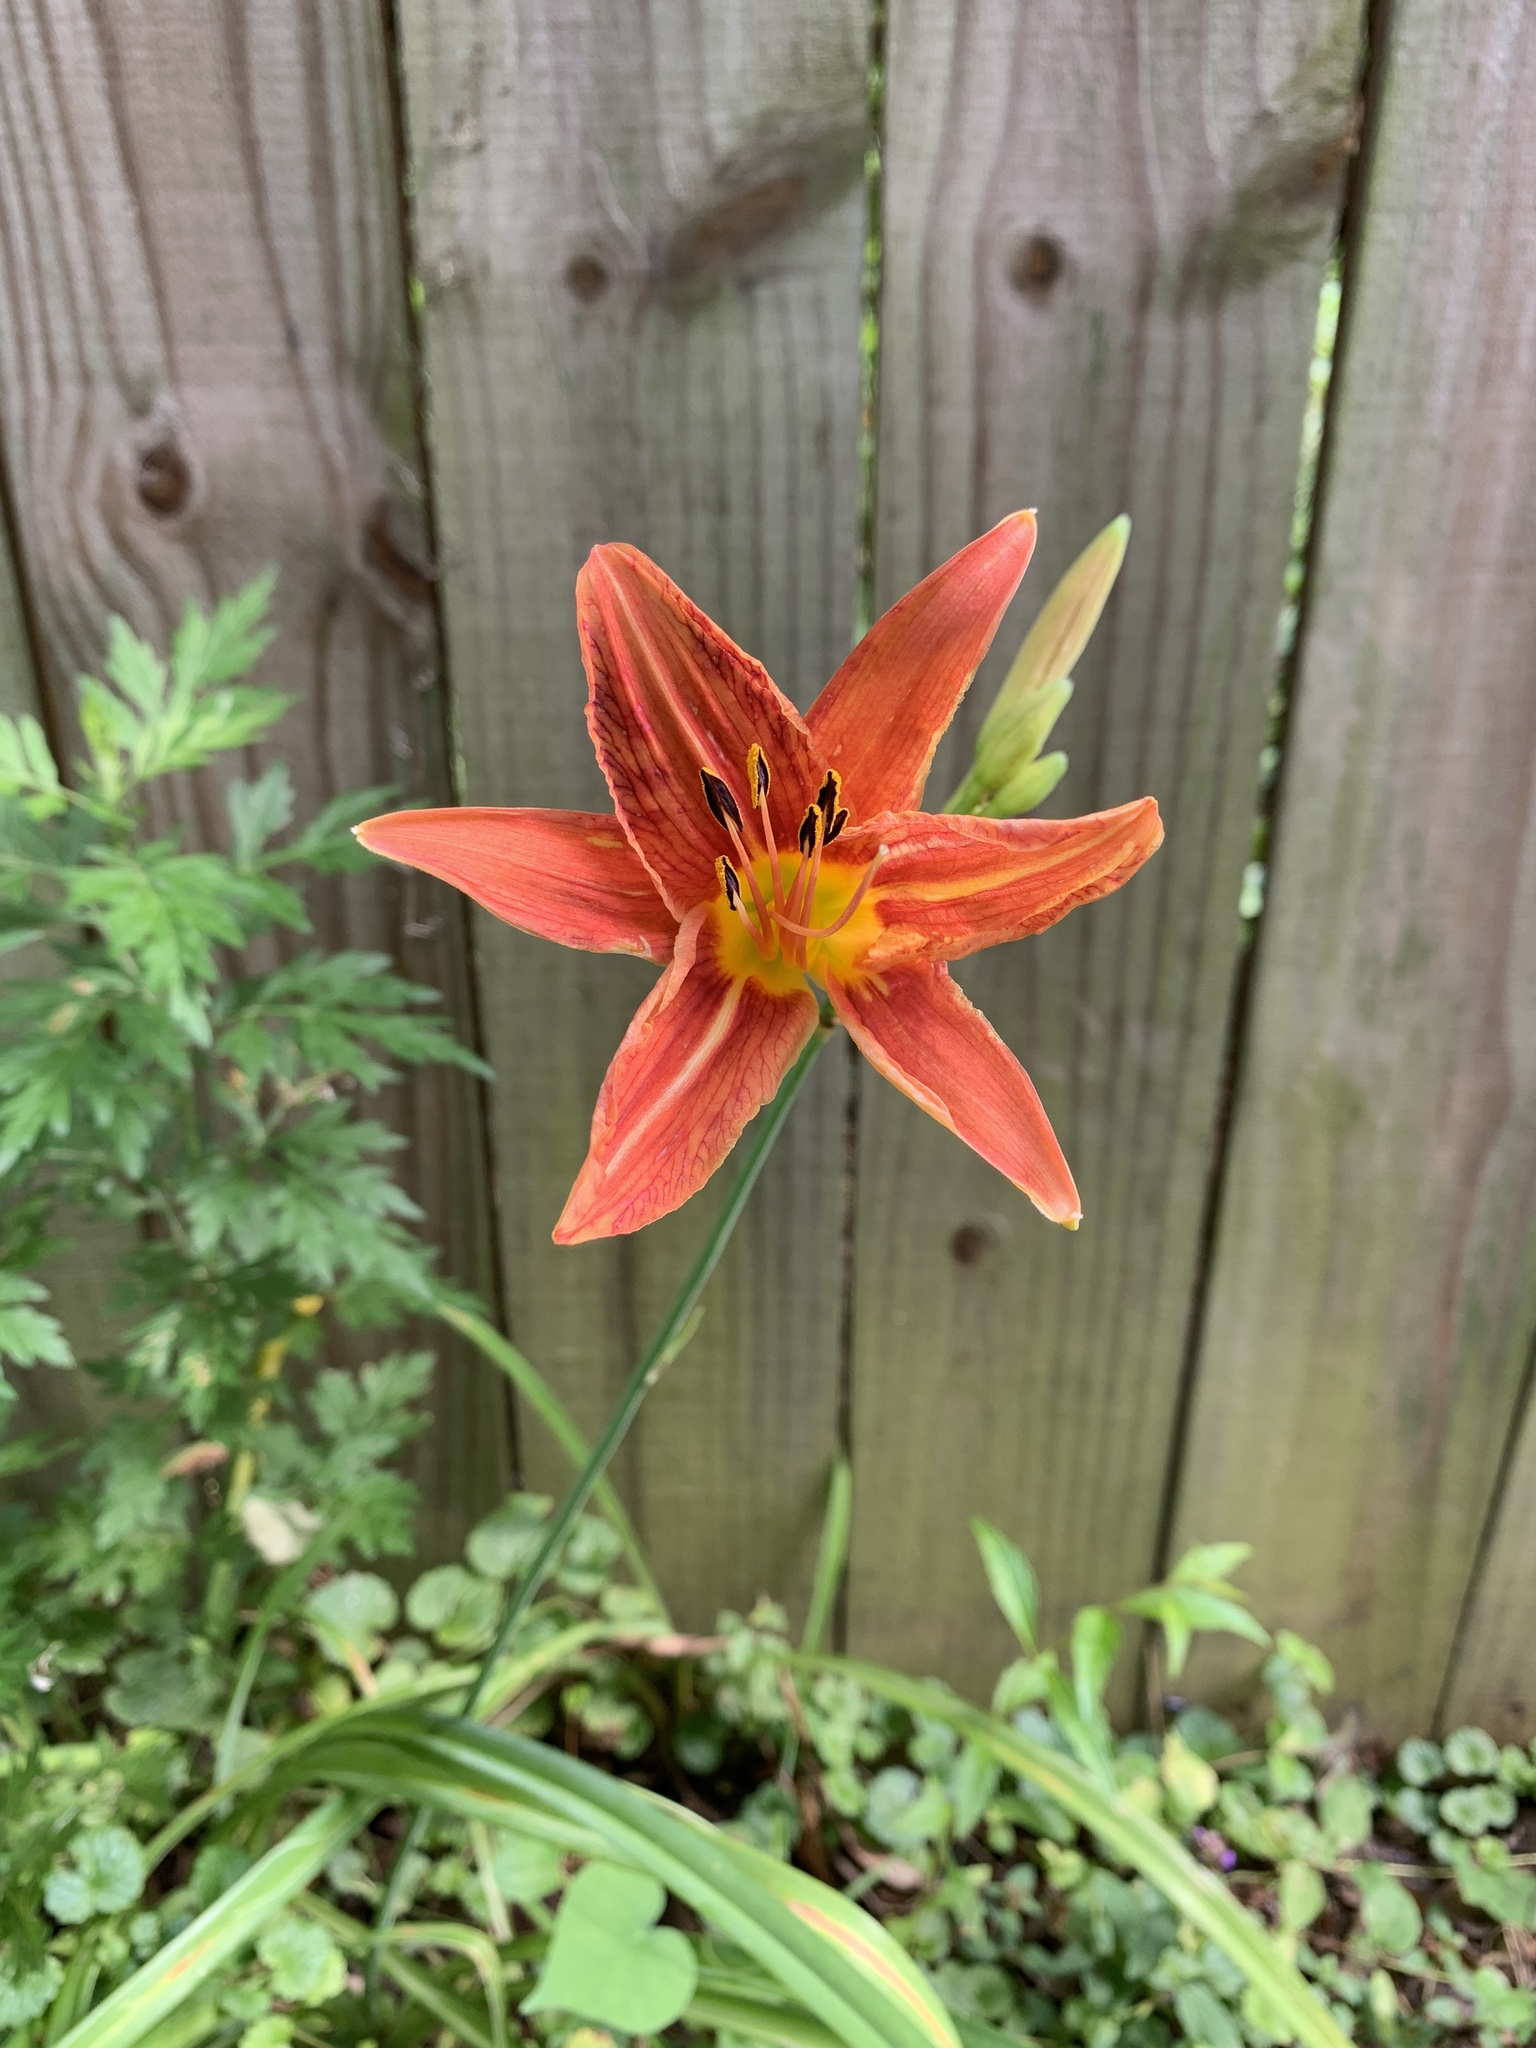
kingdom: Plantae
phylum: Tracheophyta
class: Liliopsida
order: Asparagales
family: Asphodelaceae
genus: Hemerocallis
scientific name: Hemerocallis fulva
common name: Orange day-lily
